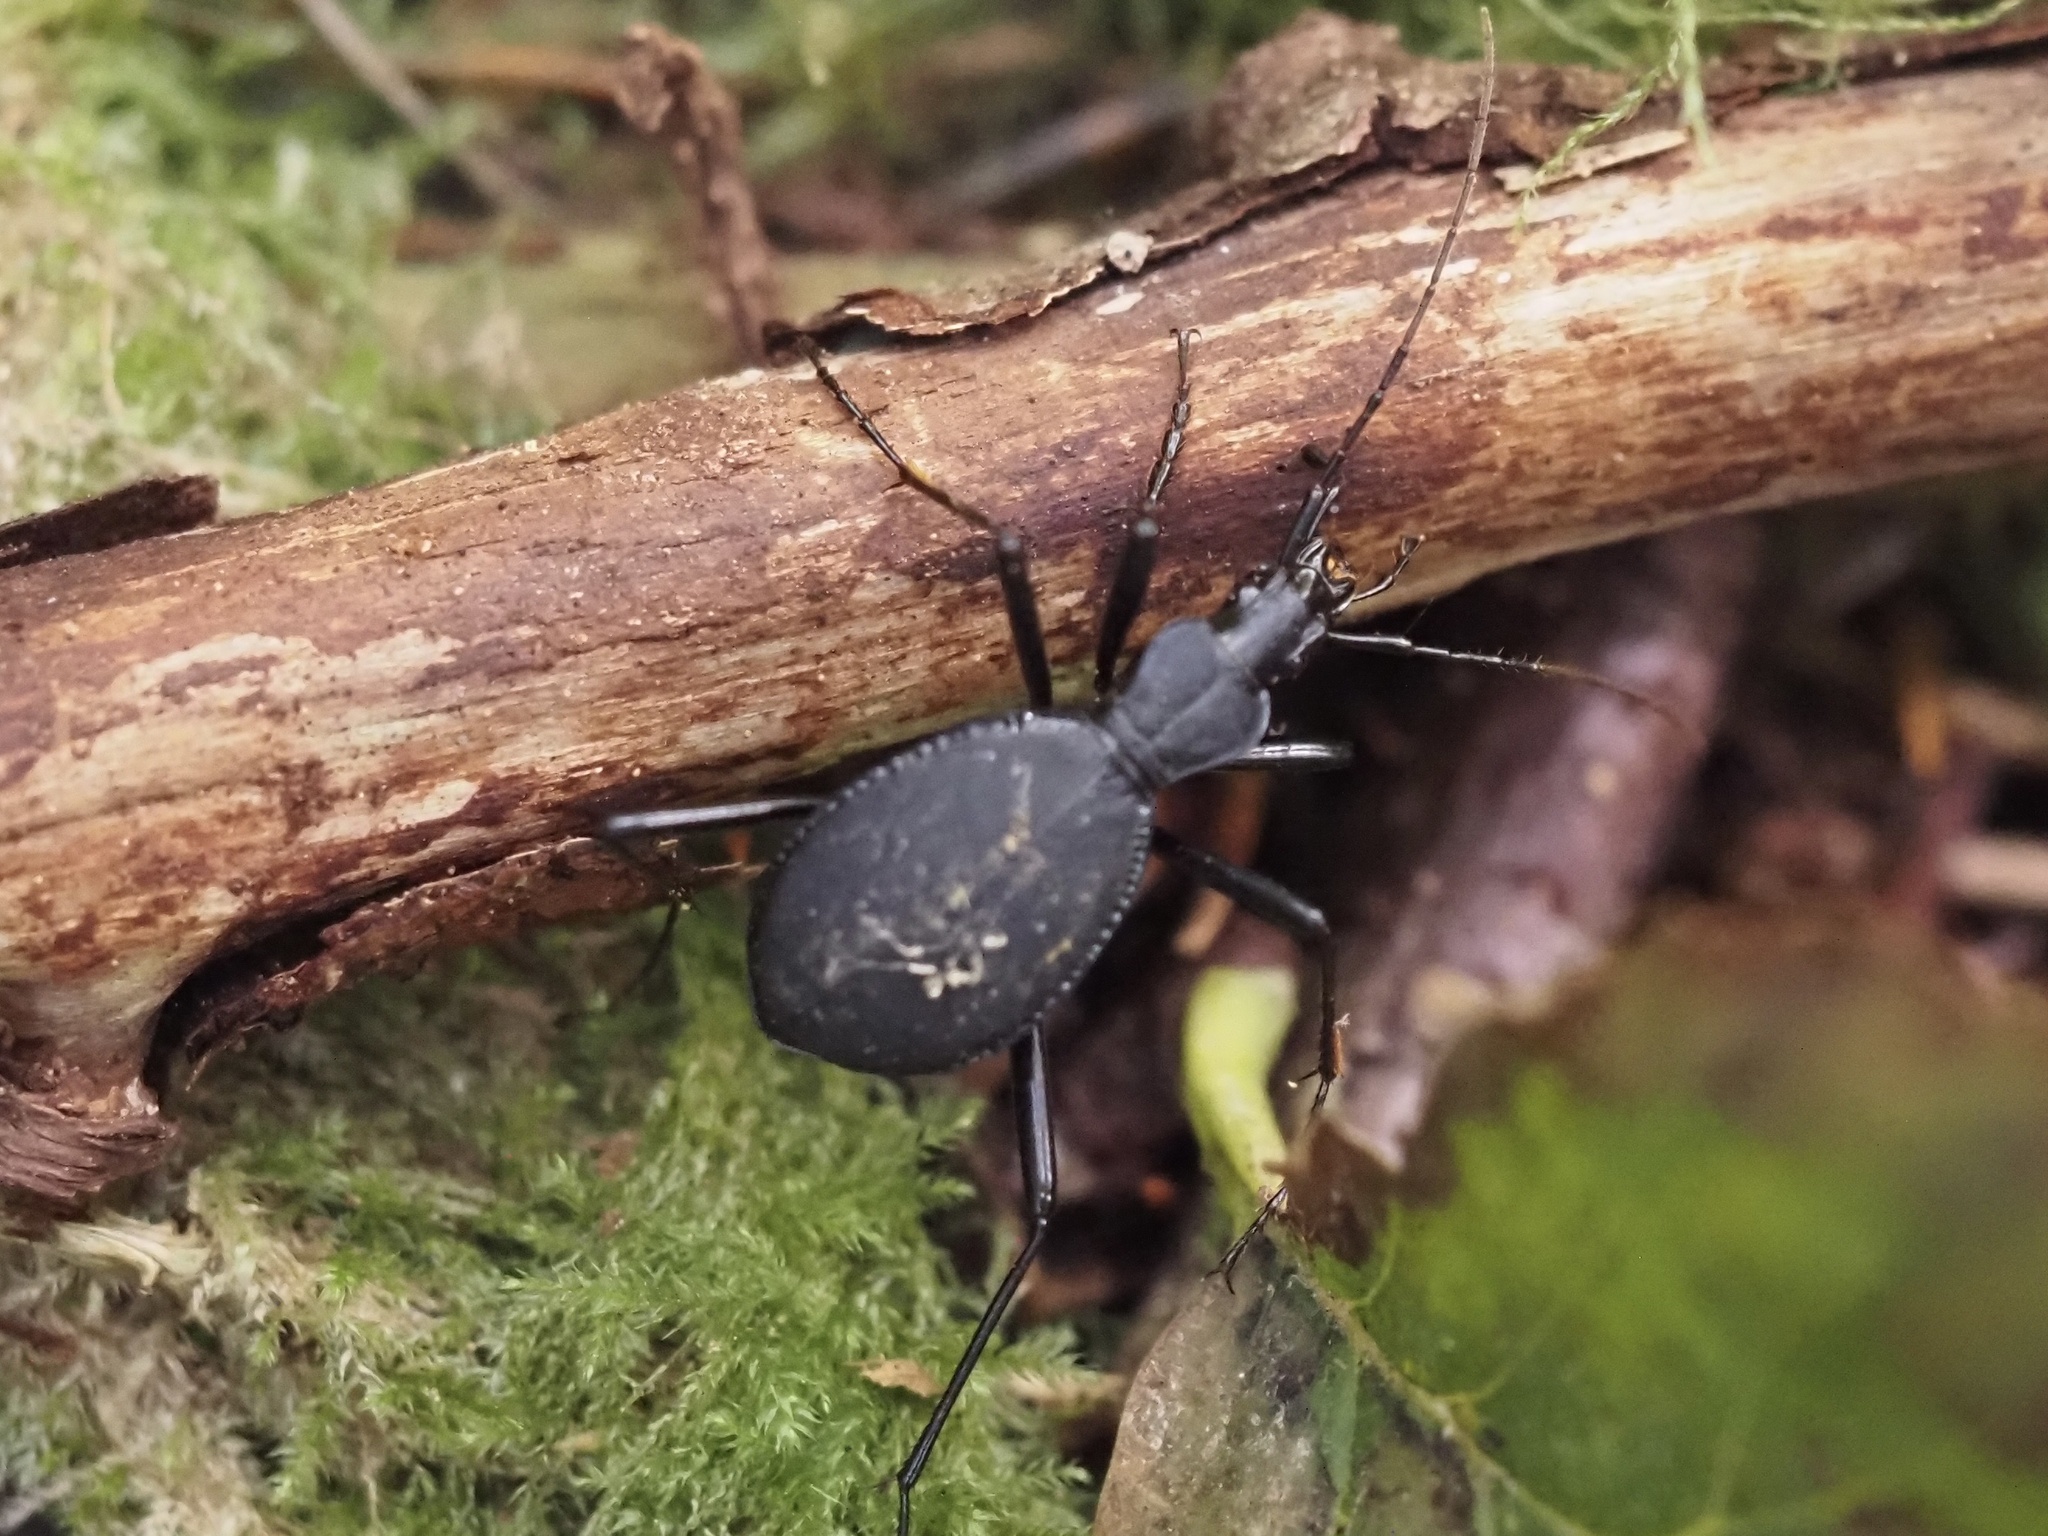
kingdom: Animalia
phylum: Arthropoda
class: Insecta
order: Coleoptera
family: Carabidae
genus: Scaphinotus
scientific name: Scaphinotus angusticollis
